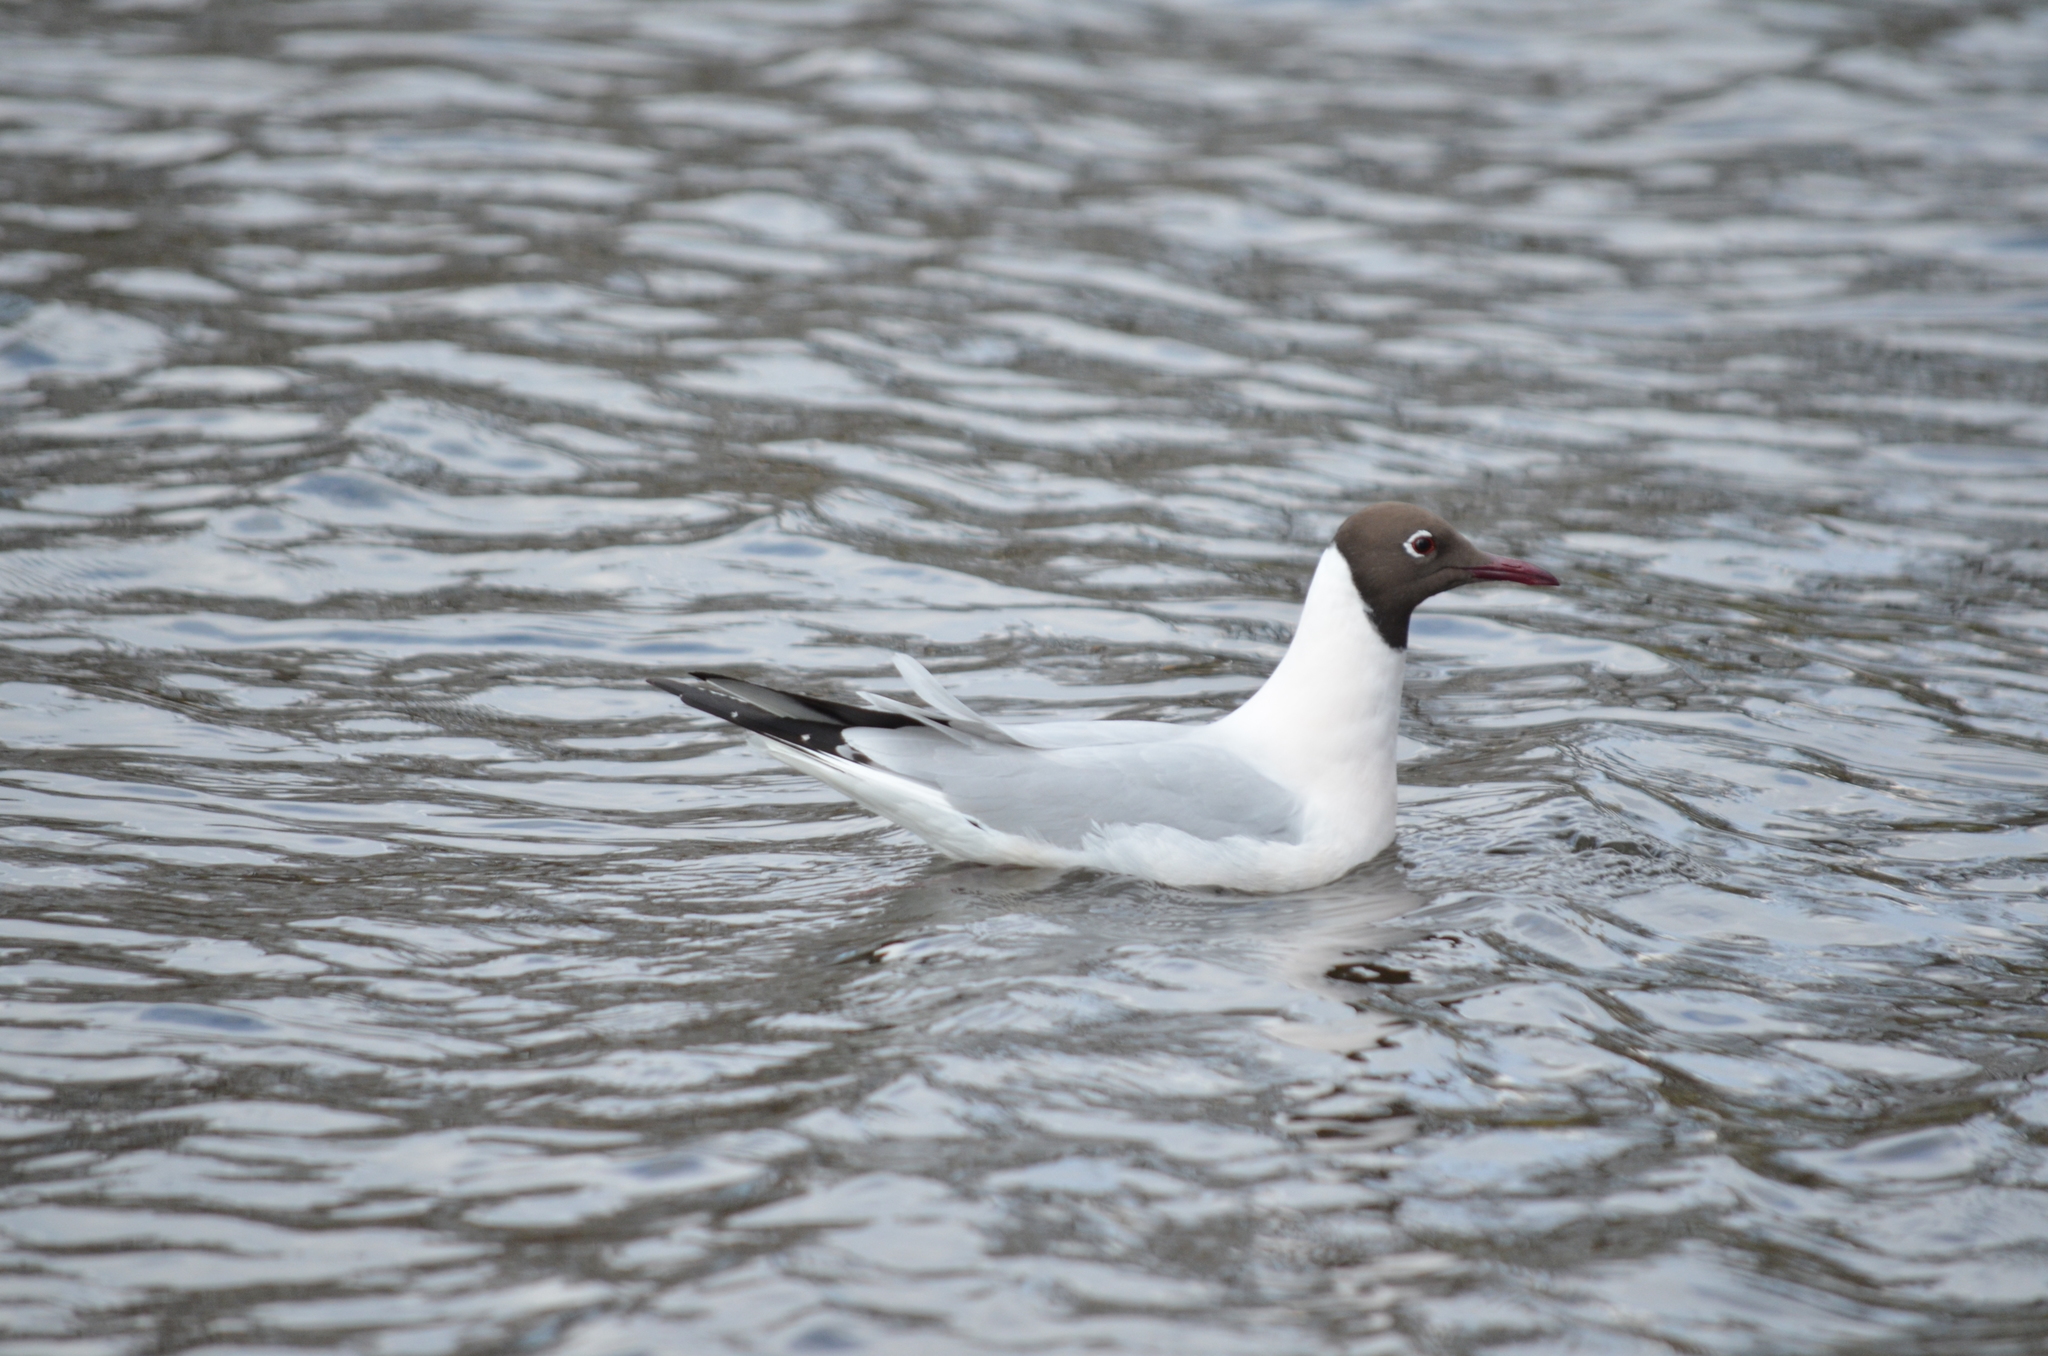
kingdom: Animalia
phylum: Chordata
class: Aves
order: Charadriiformes
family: Laridae
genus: Chroicocephalus
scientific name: Chroicocephalus ridibundus
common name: Black-headed gull
